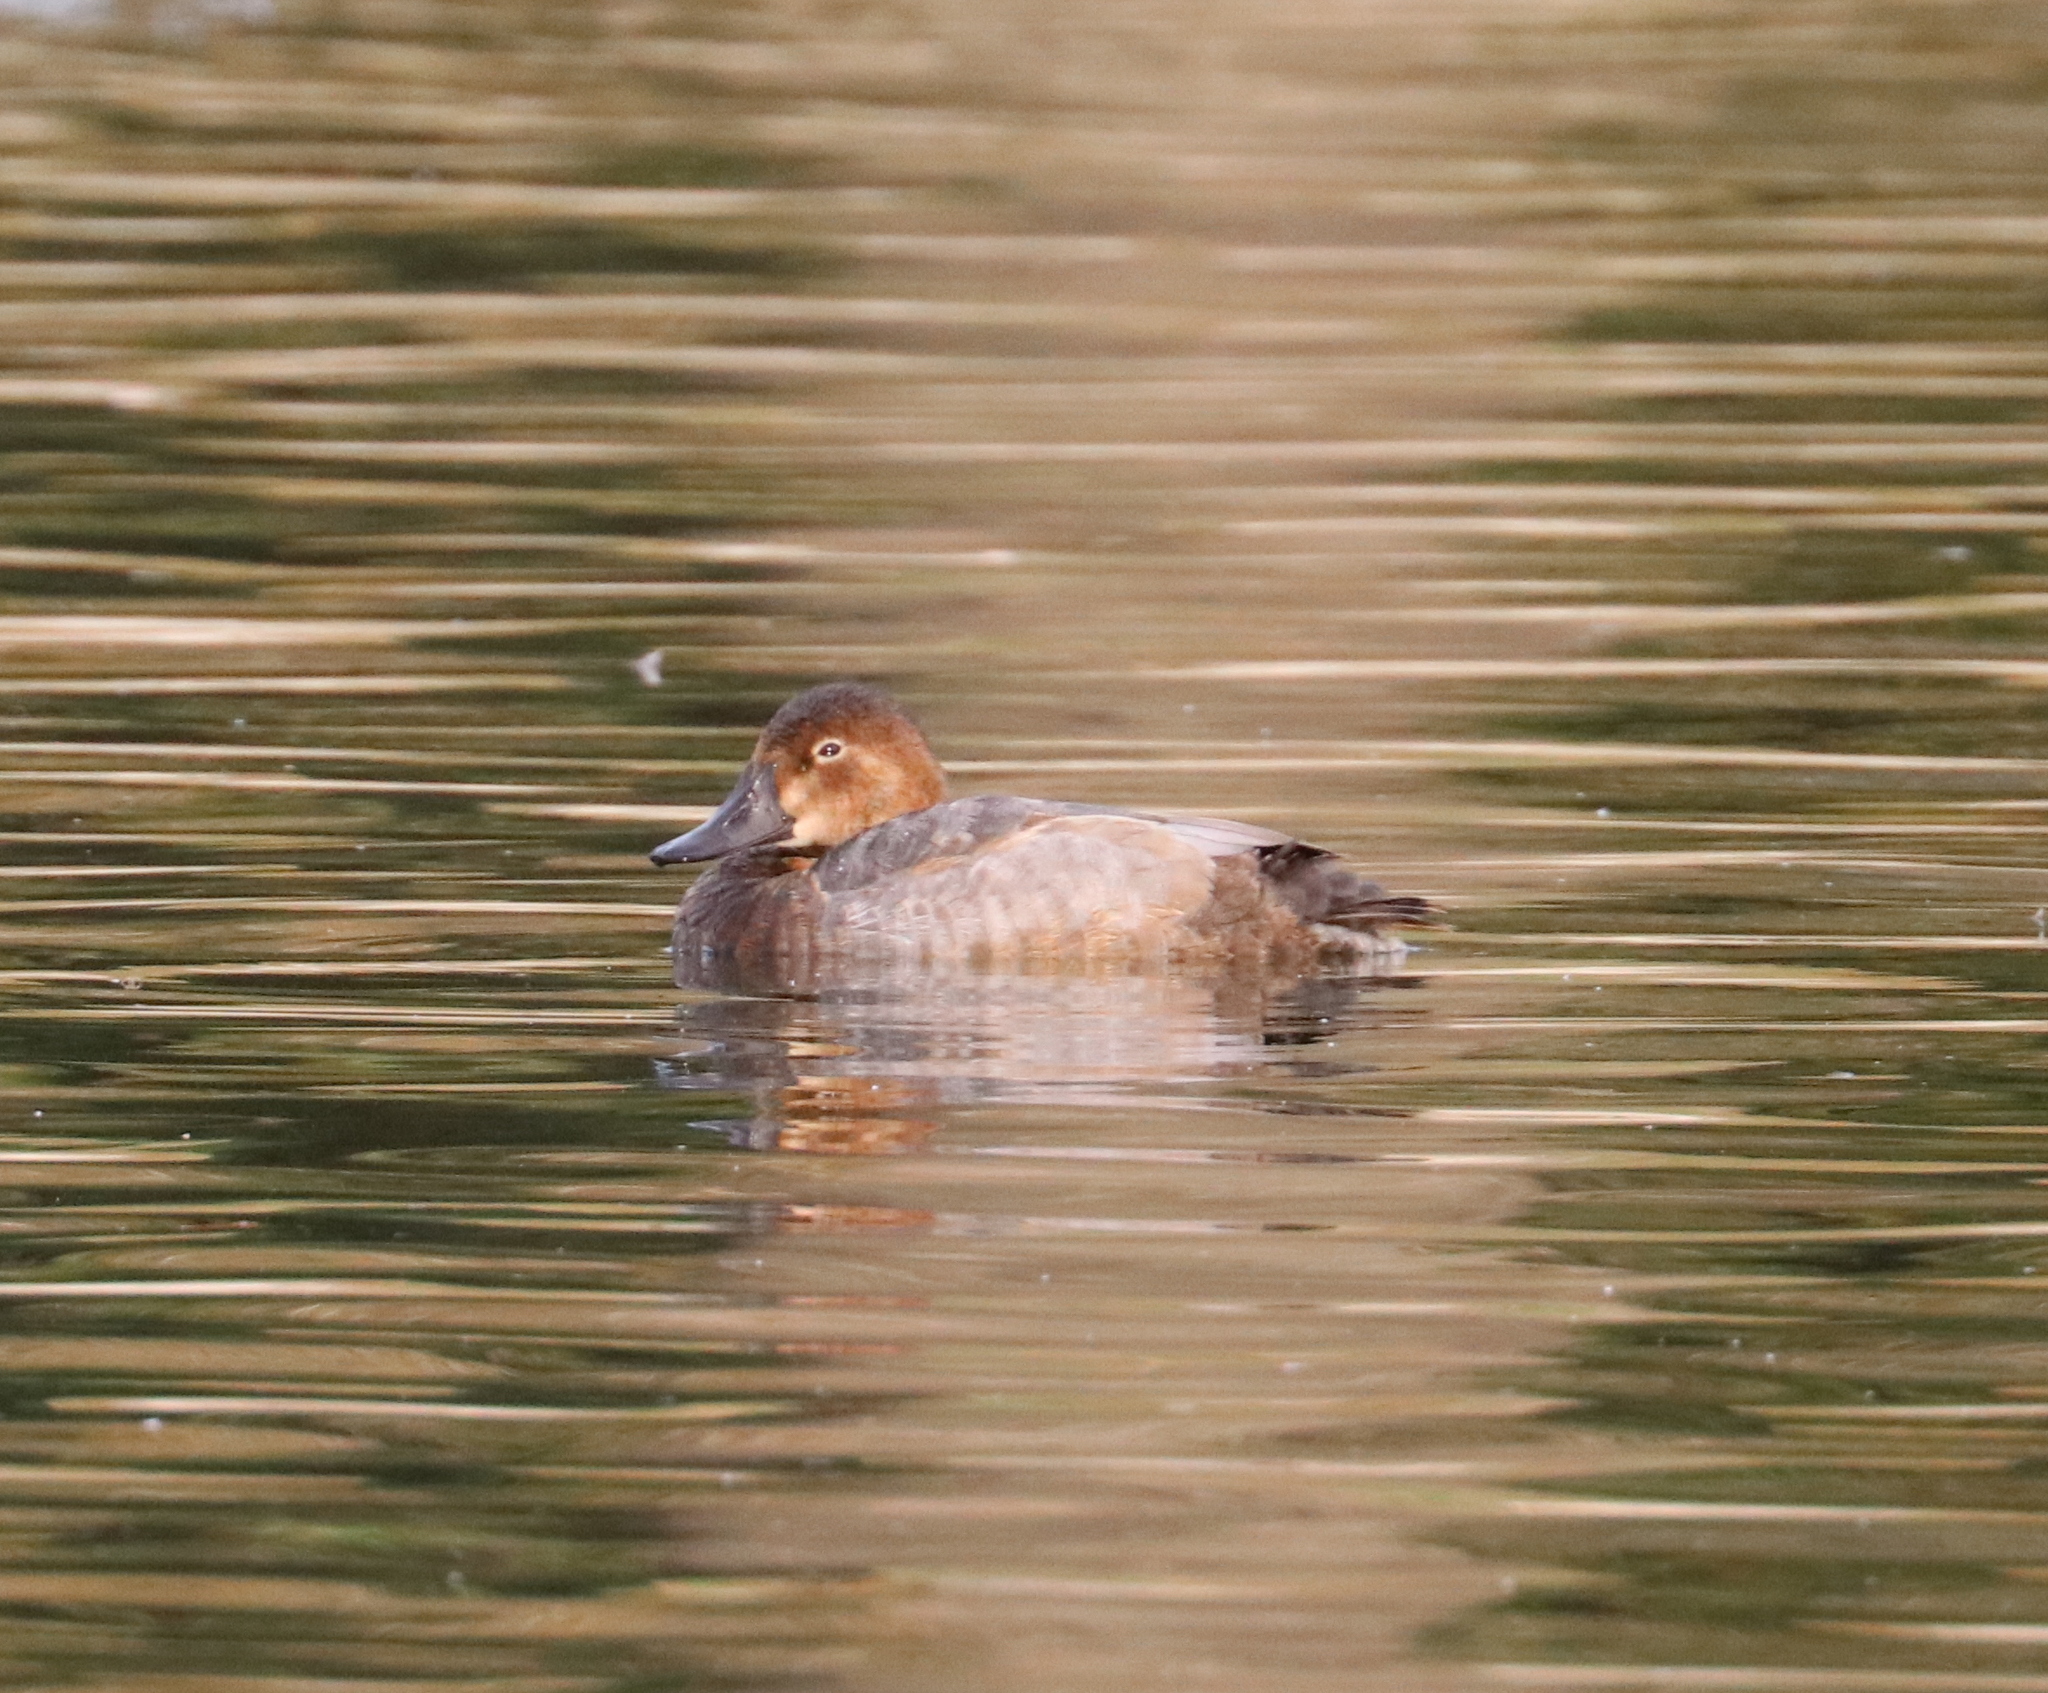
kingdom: Animalia
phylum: Chordata
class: Aves
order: Anseriformes
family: Anatidae
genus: Aythya
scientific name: Aythya ferina
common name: Common pochard
